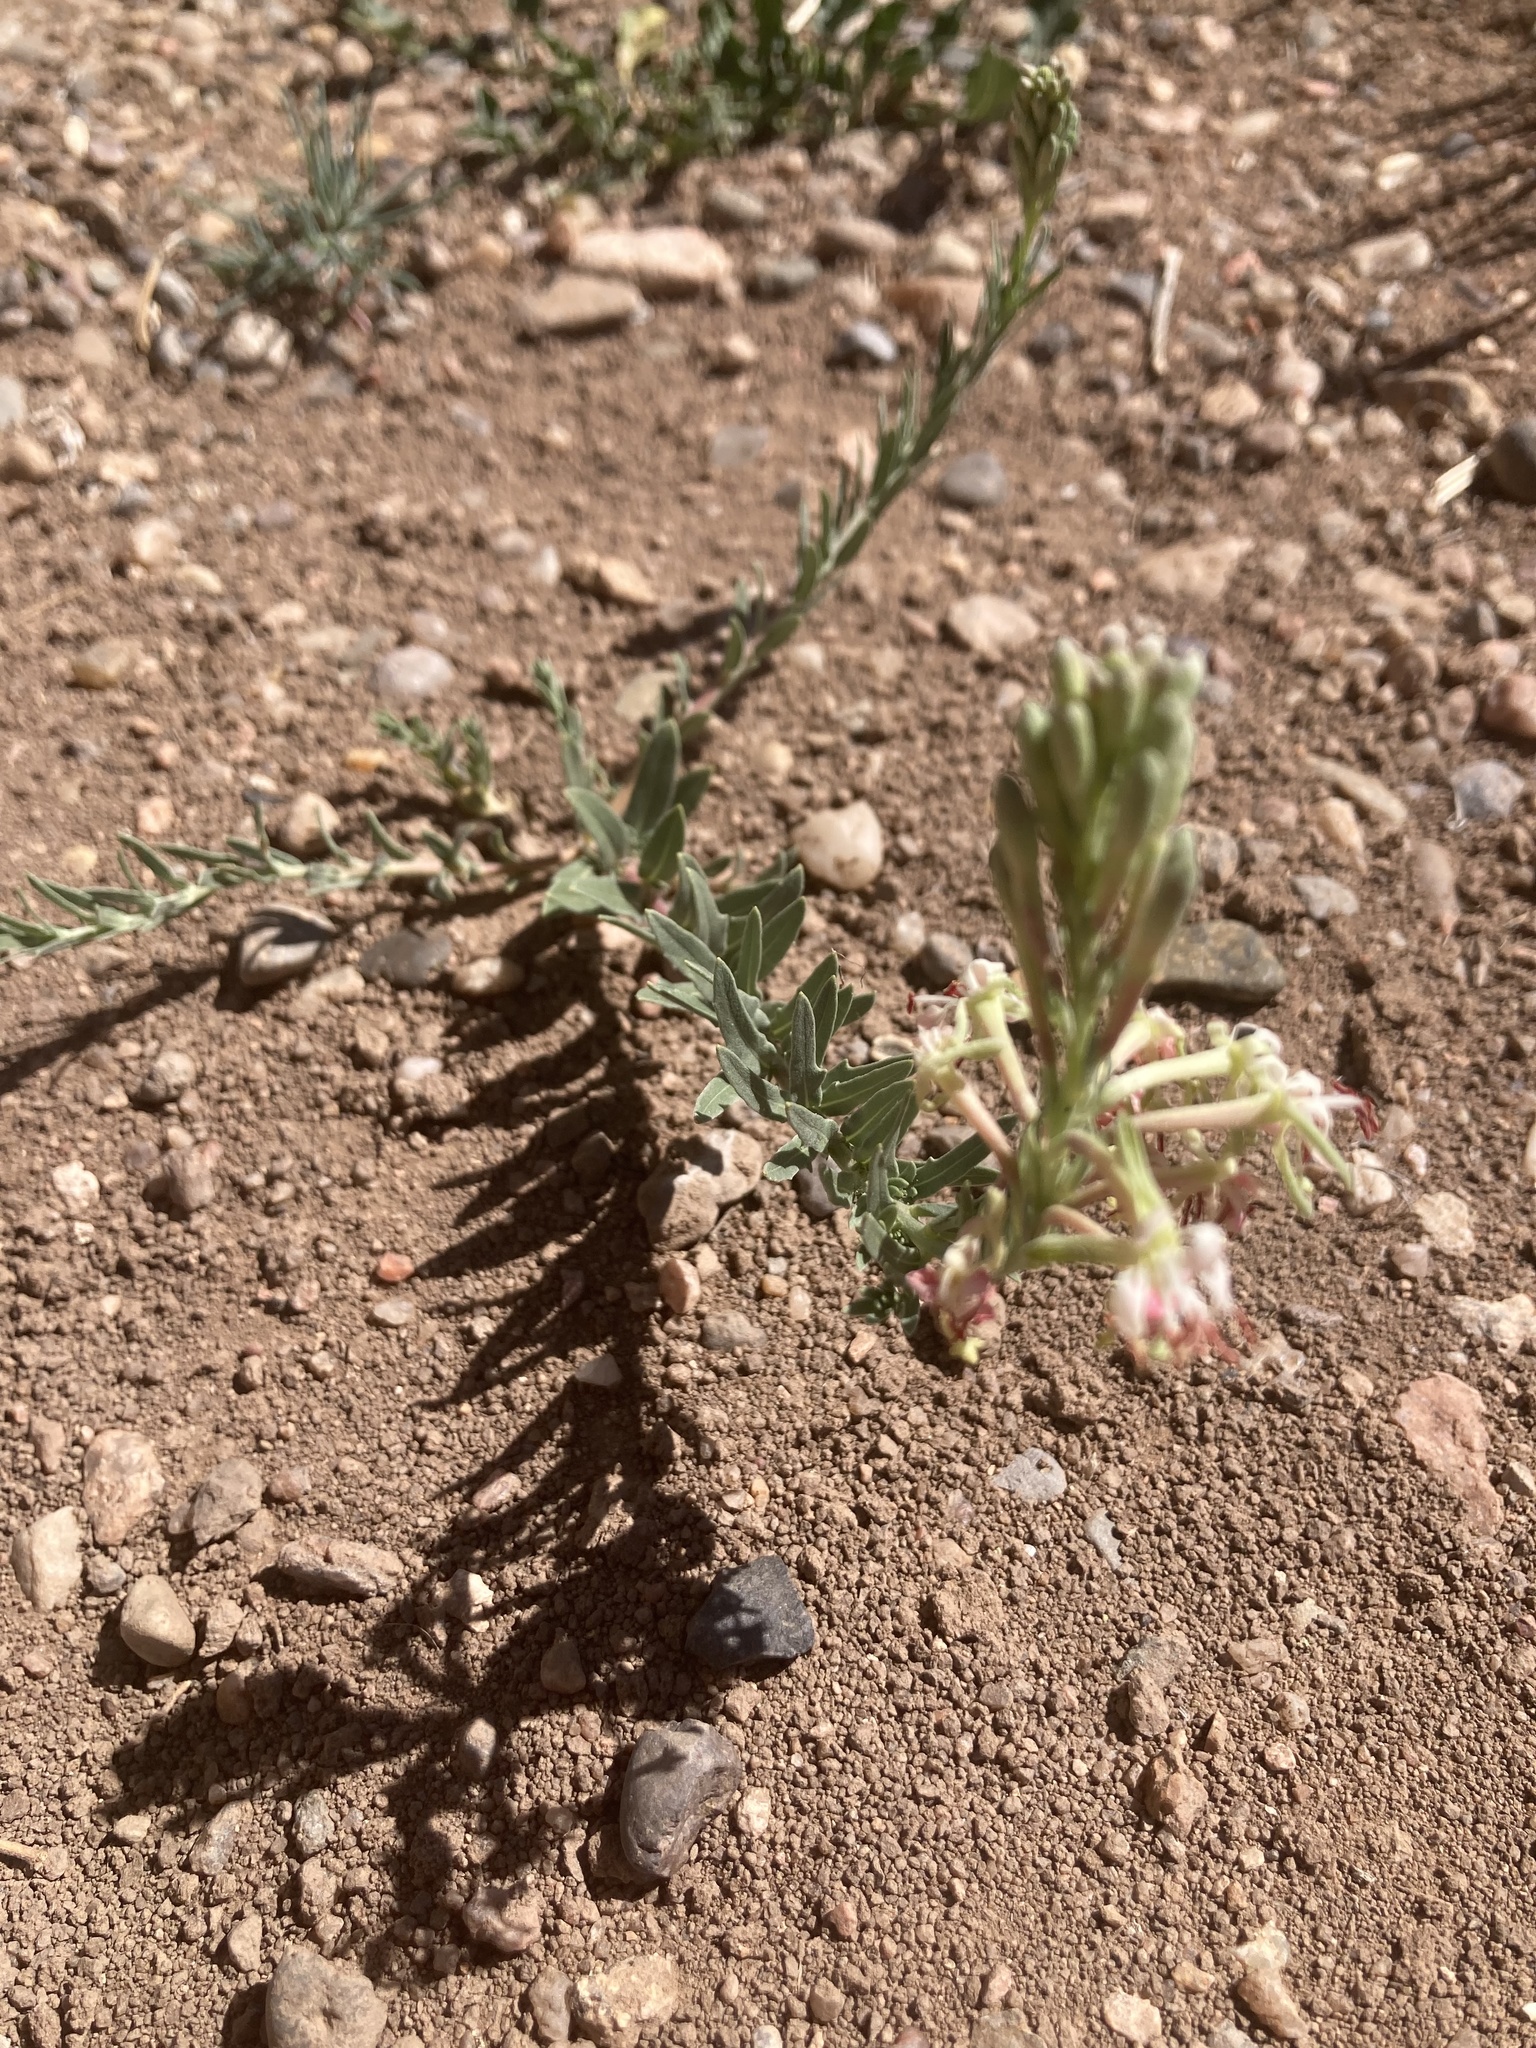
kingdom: Plantae
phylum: Tracheophyta
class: Magnoliopsida
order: Myrtales
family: Onagraceae
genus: Oenothera
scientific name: Oenothera suffrutescens
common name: Scarlet beeblossom
